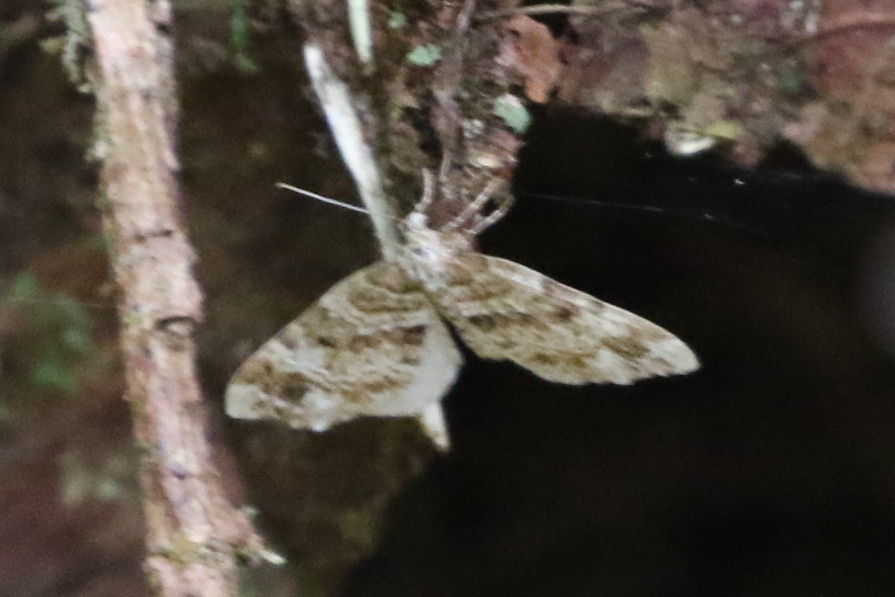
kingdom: Animalia
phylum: Arthropoda
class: Insecta
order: Lepidoptera
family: Geometridae
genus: Martania
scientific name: Martania
